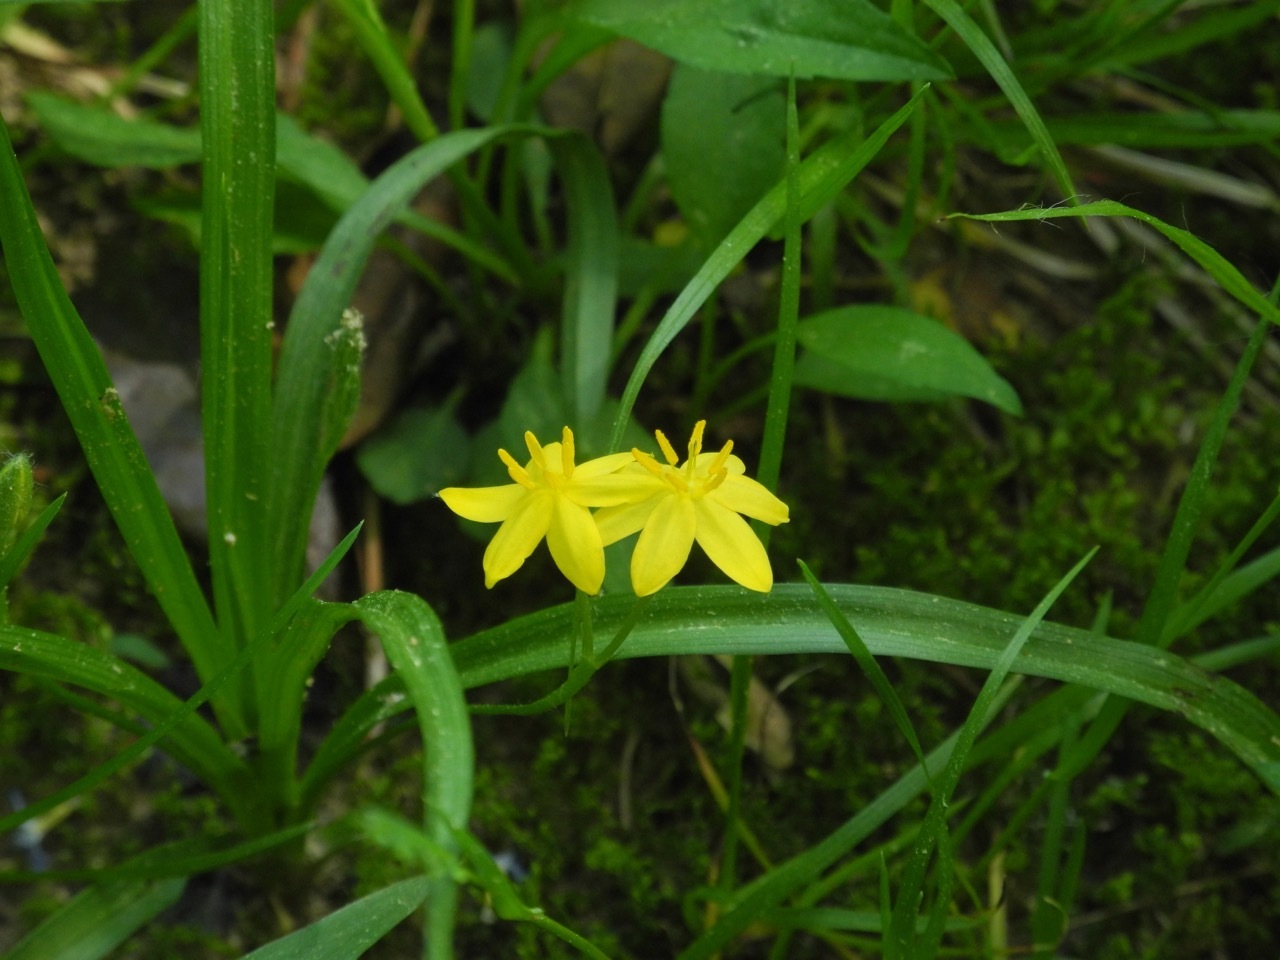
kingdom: Plantae
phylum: Tracheophyta
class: Liliopsida
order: Asparagales
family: Hypoxidaceae
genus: Hypoxis
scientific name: Hypoxis hirsuta
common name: Common goldstar
